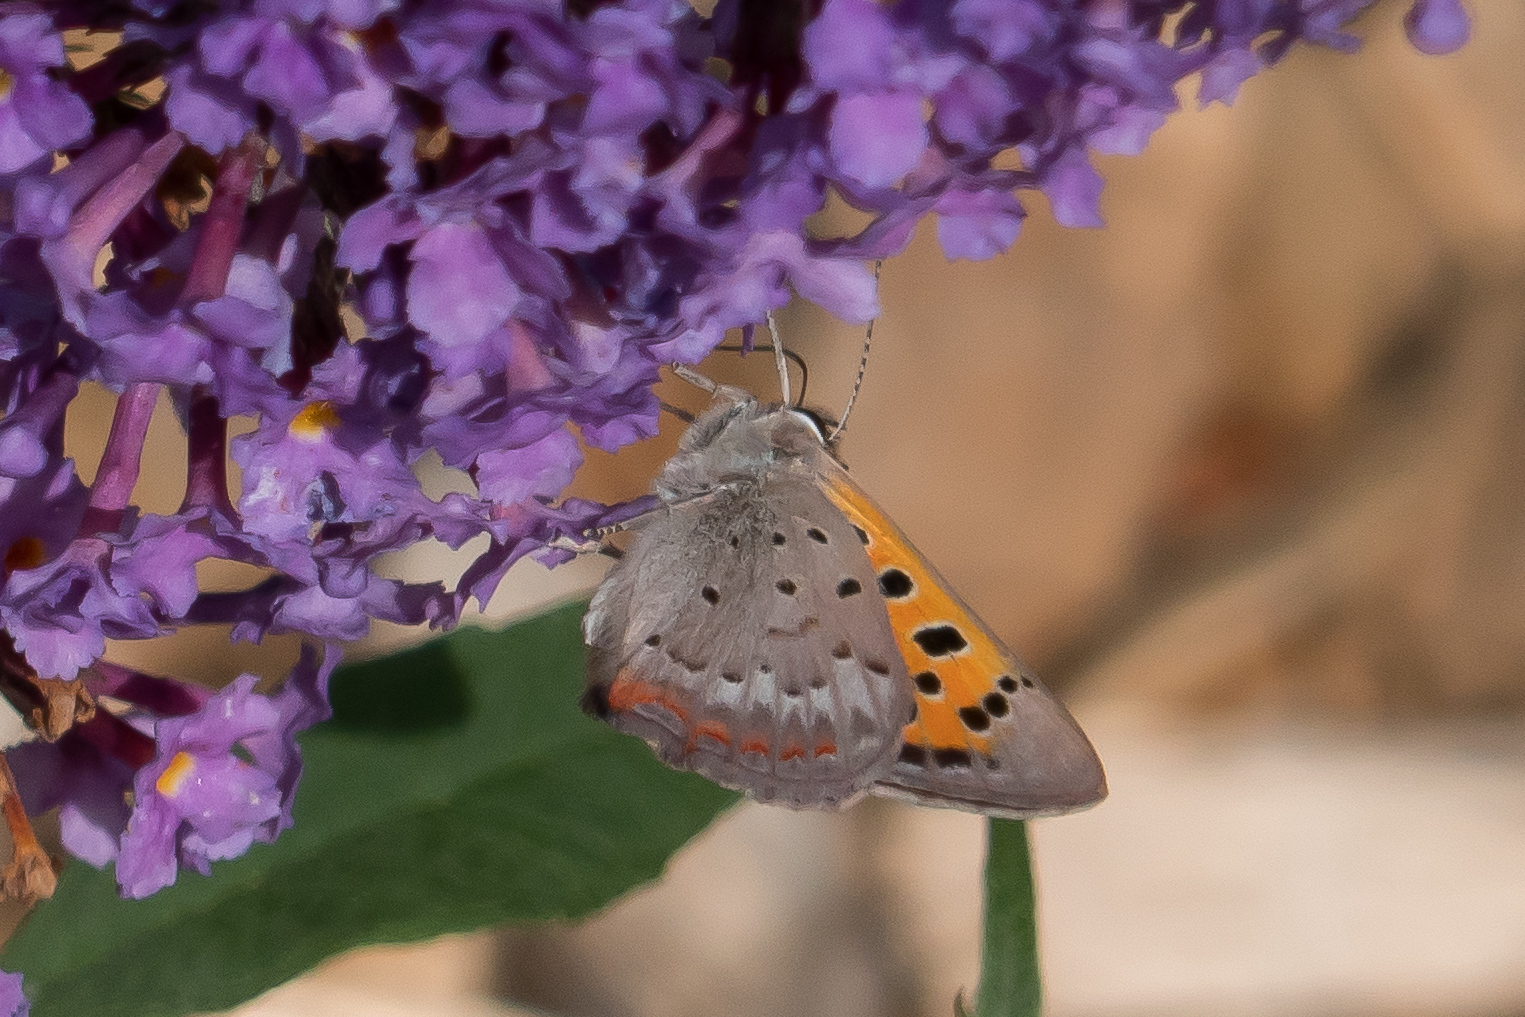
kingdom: Animalia
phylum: Arthropoda
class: Insecta
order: Lepidoptera
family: Lycaenidae
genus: Lycaena
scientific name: Lycaena phlaeas
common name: Small copper
